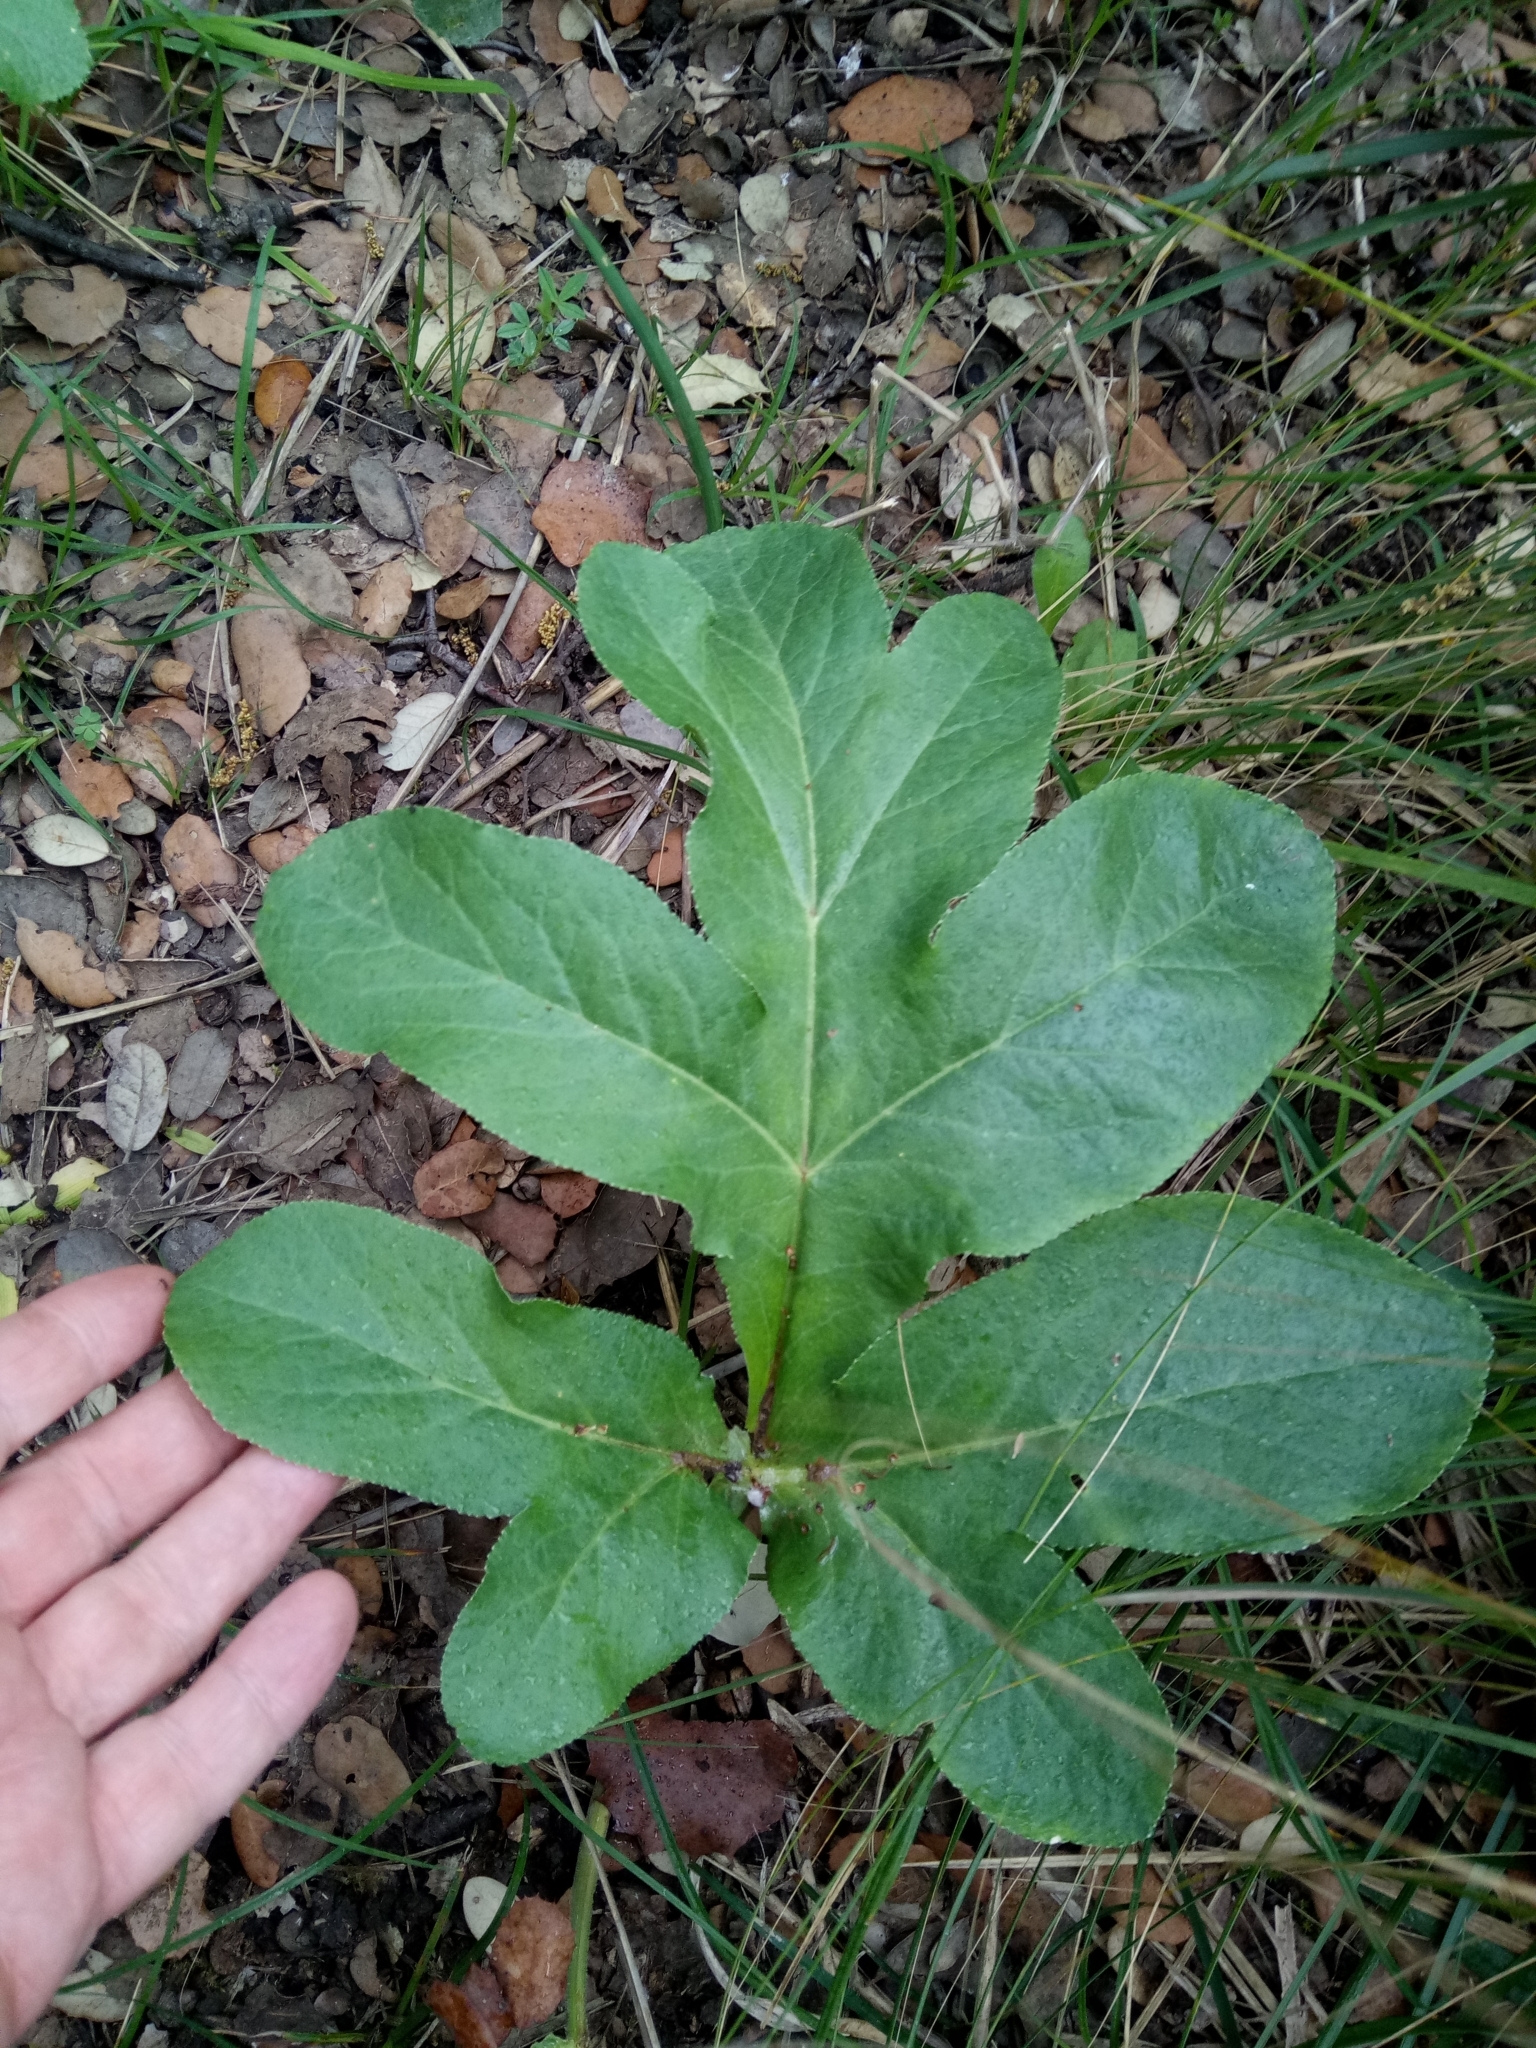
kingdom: Plantae
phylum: Tracheophyta
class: Magnoliopsida
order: Apiales
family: Apiaceae
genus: Magydaris
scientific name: Magydaris pastinacea
